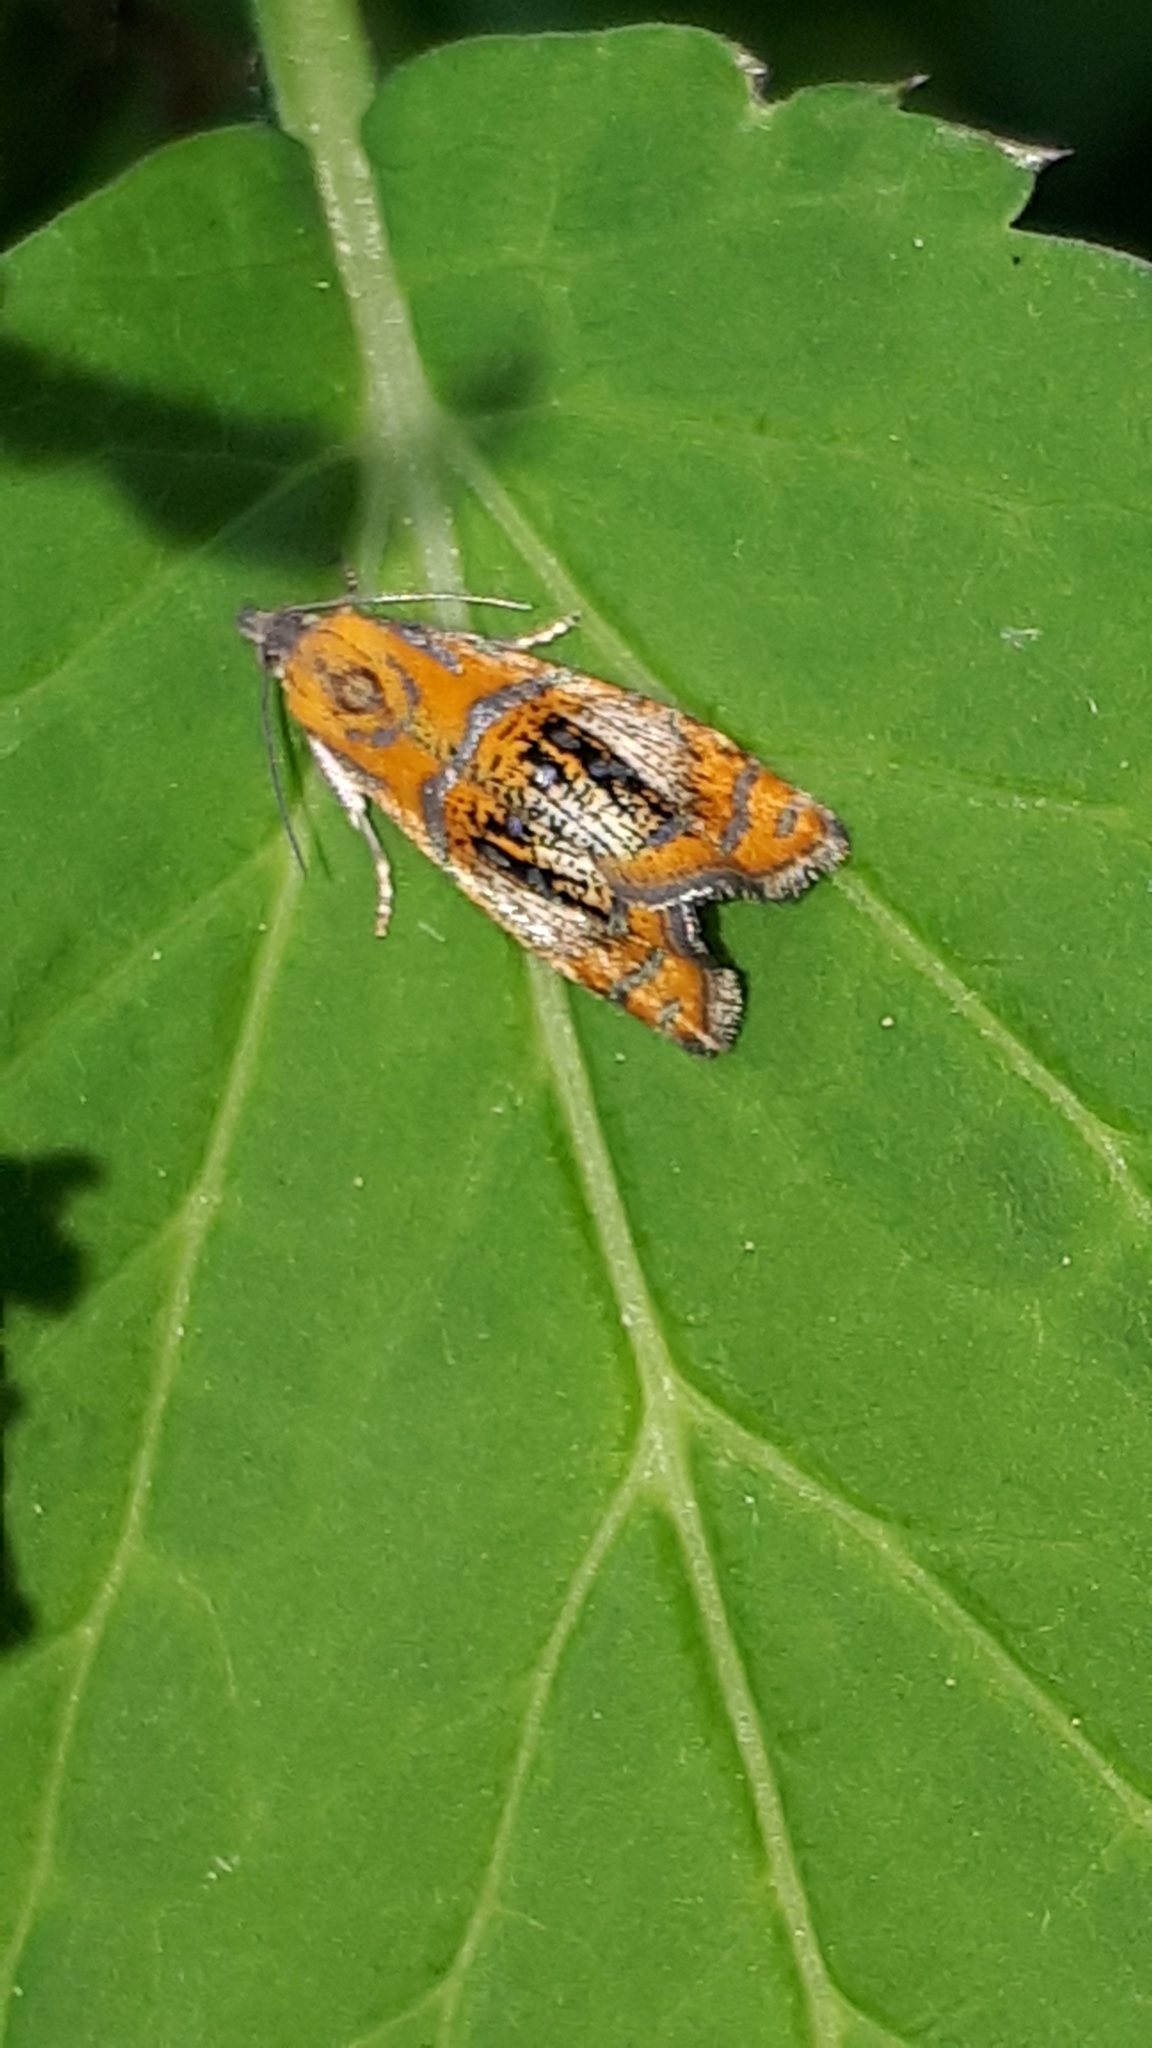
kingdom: Animalia
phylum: Arthropoda
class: Insecta
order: Lepidoptera
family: Tortricidae
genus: Olethreutes
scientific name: Olethreutes arcuella
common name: Arched marble
